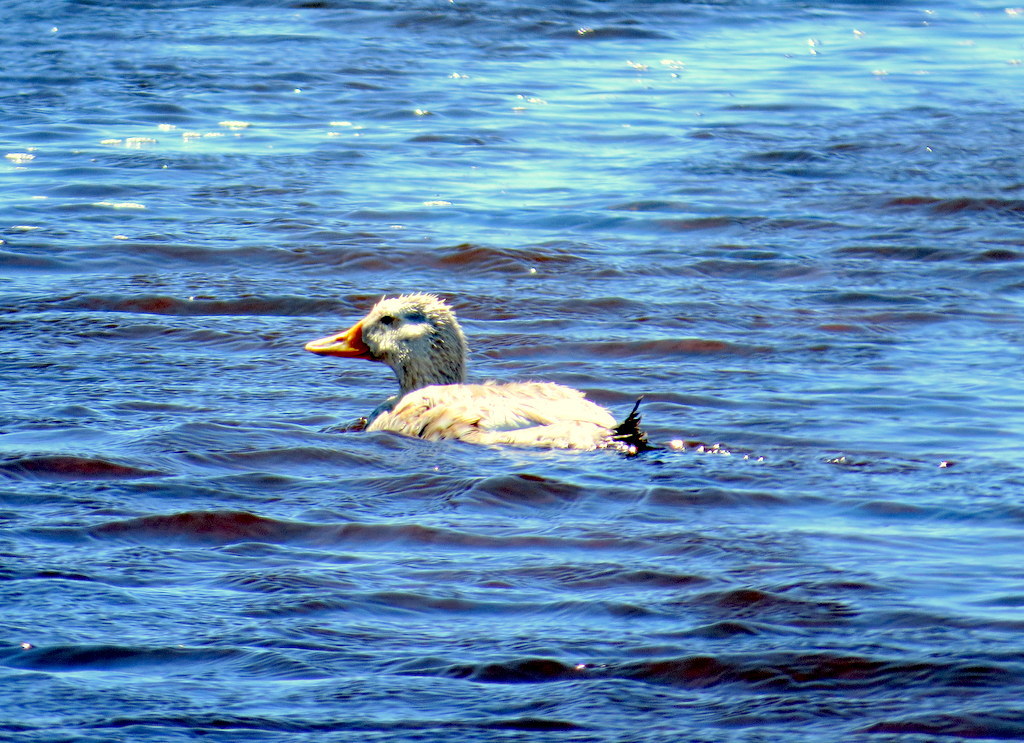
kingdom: Animalia
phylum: Chordata
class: Aves
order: Anseriformes
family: Anatidae
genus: Tachyeres
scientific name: Tachyeres patachonicus
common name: Flying steamer duck
